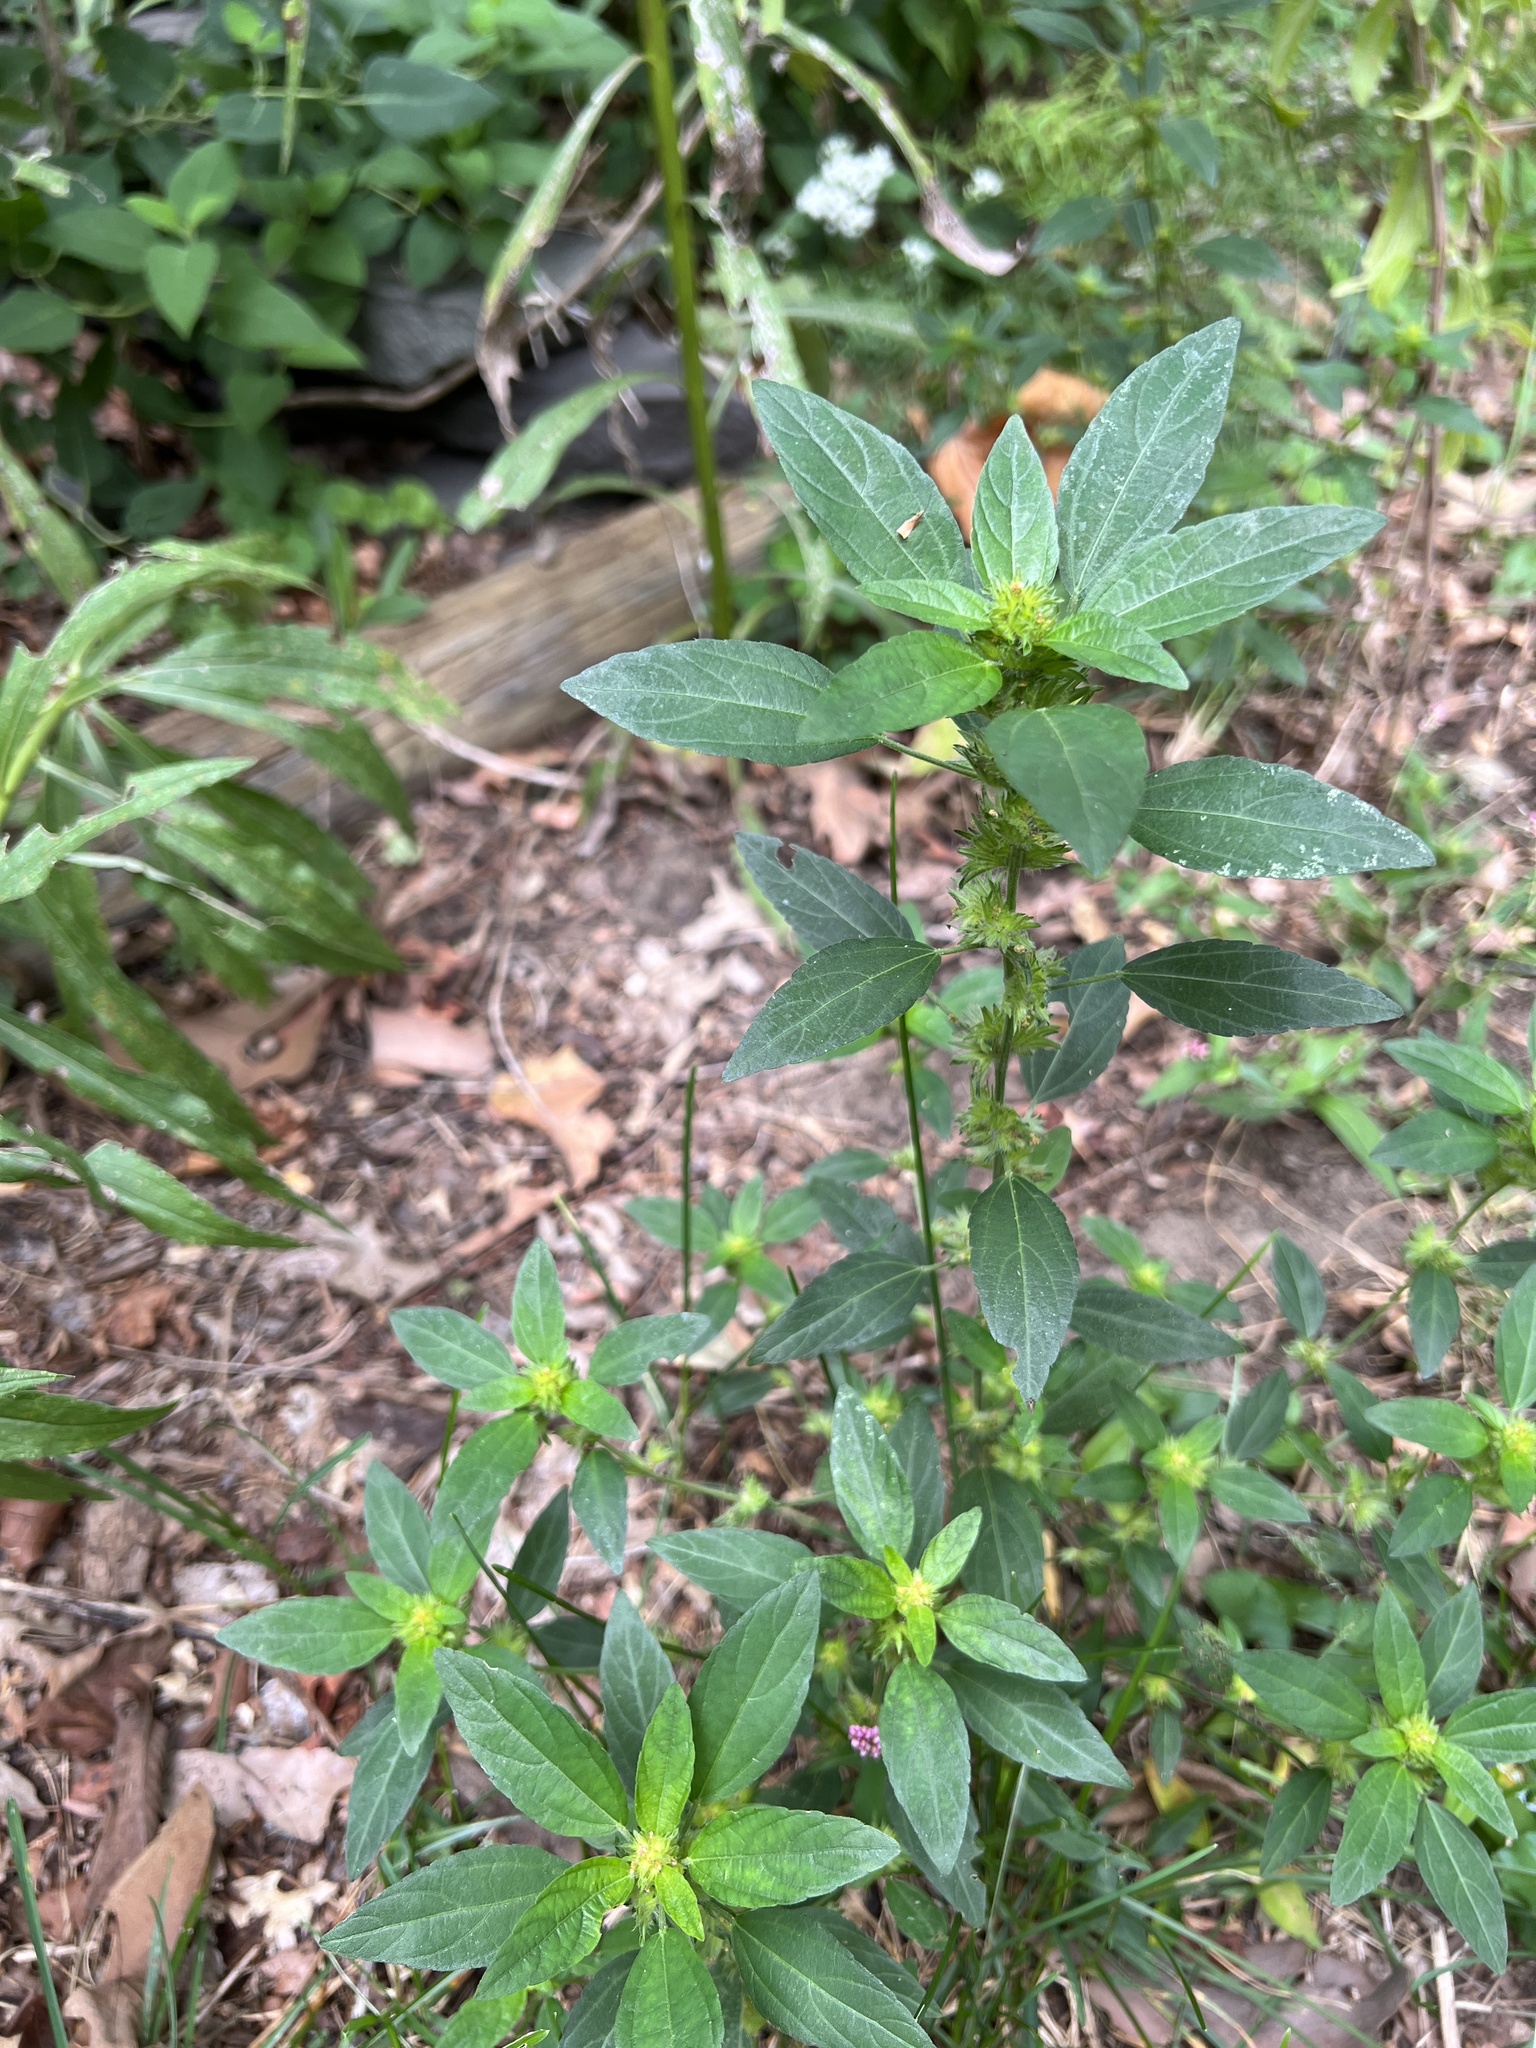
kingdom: Plantae
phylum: Tracheophyta
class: Magnoliopsida
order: Malpighiales
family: Euphorbiaceae
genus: Acalypha
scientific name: Acalypha virginica
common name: Virginia copperleaf
